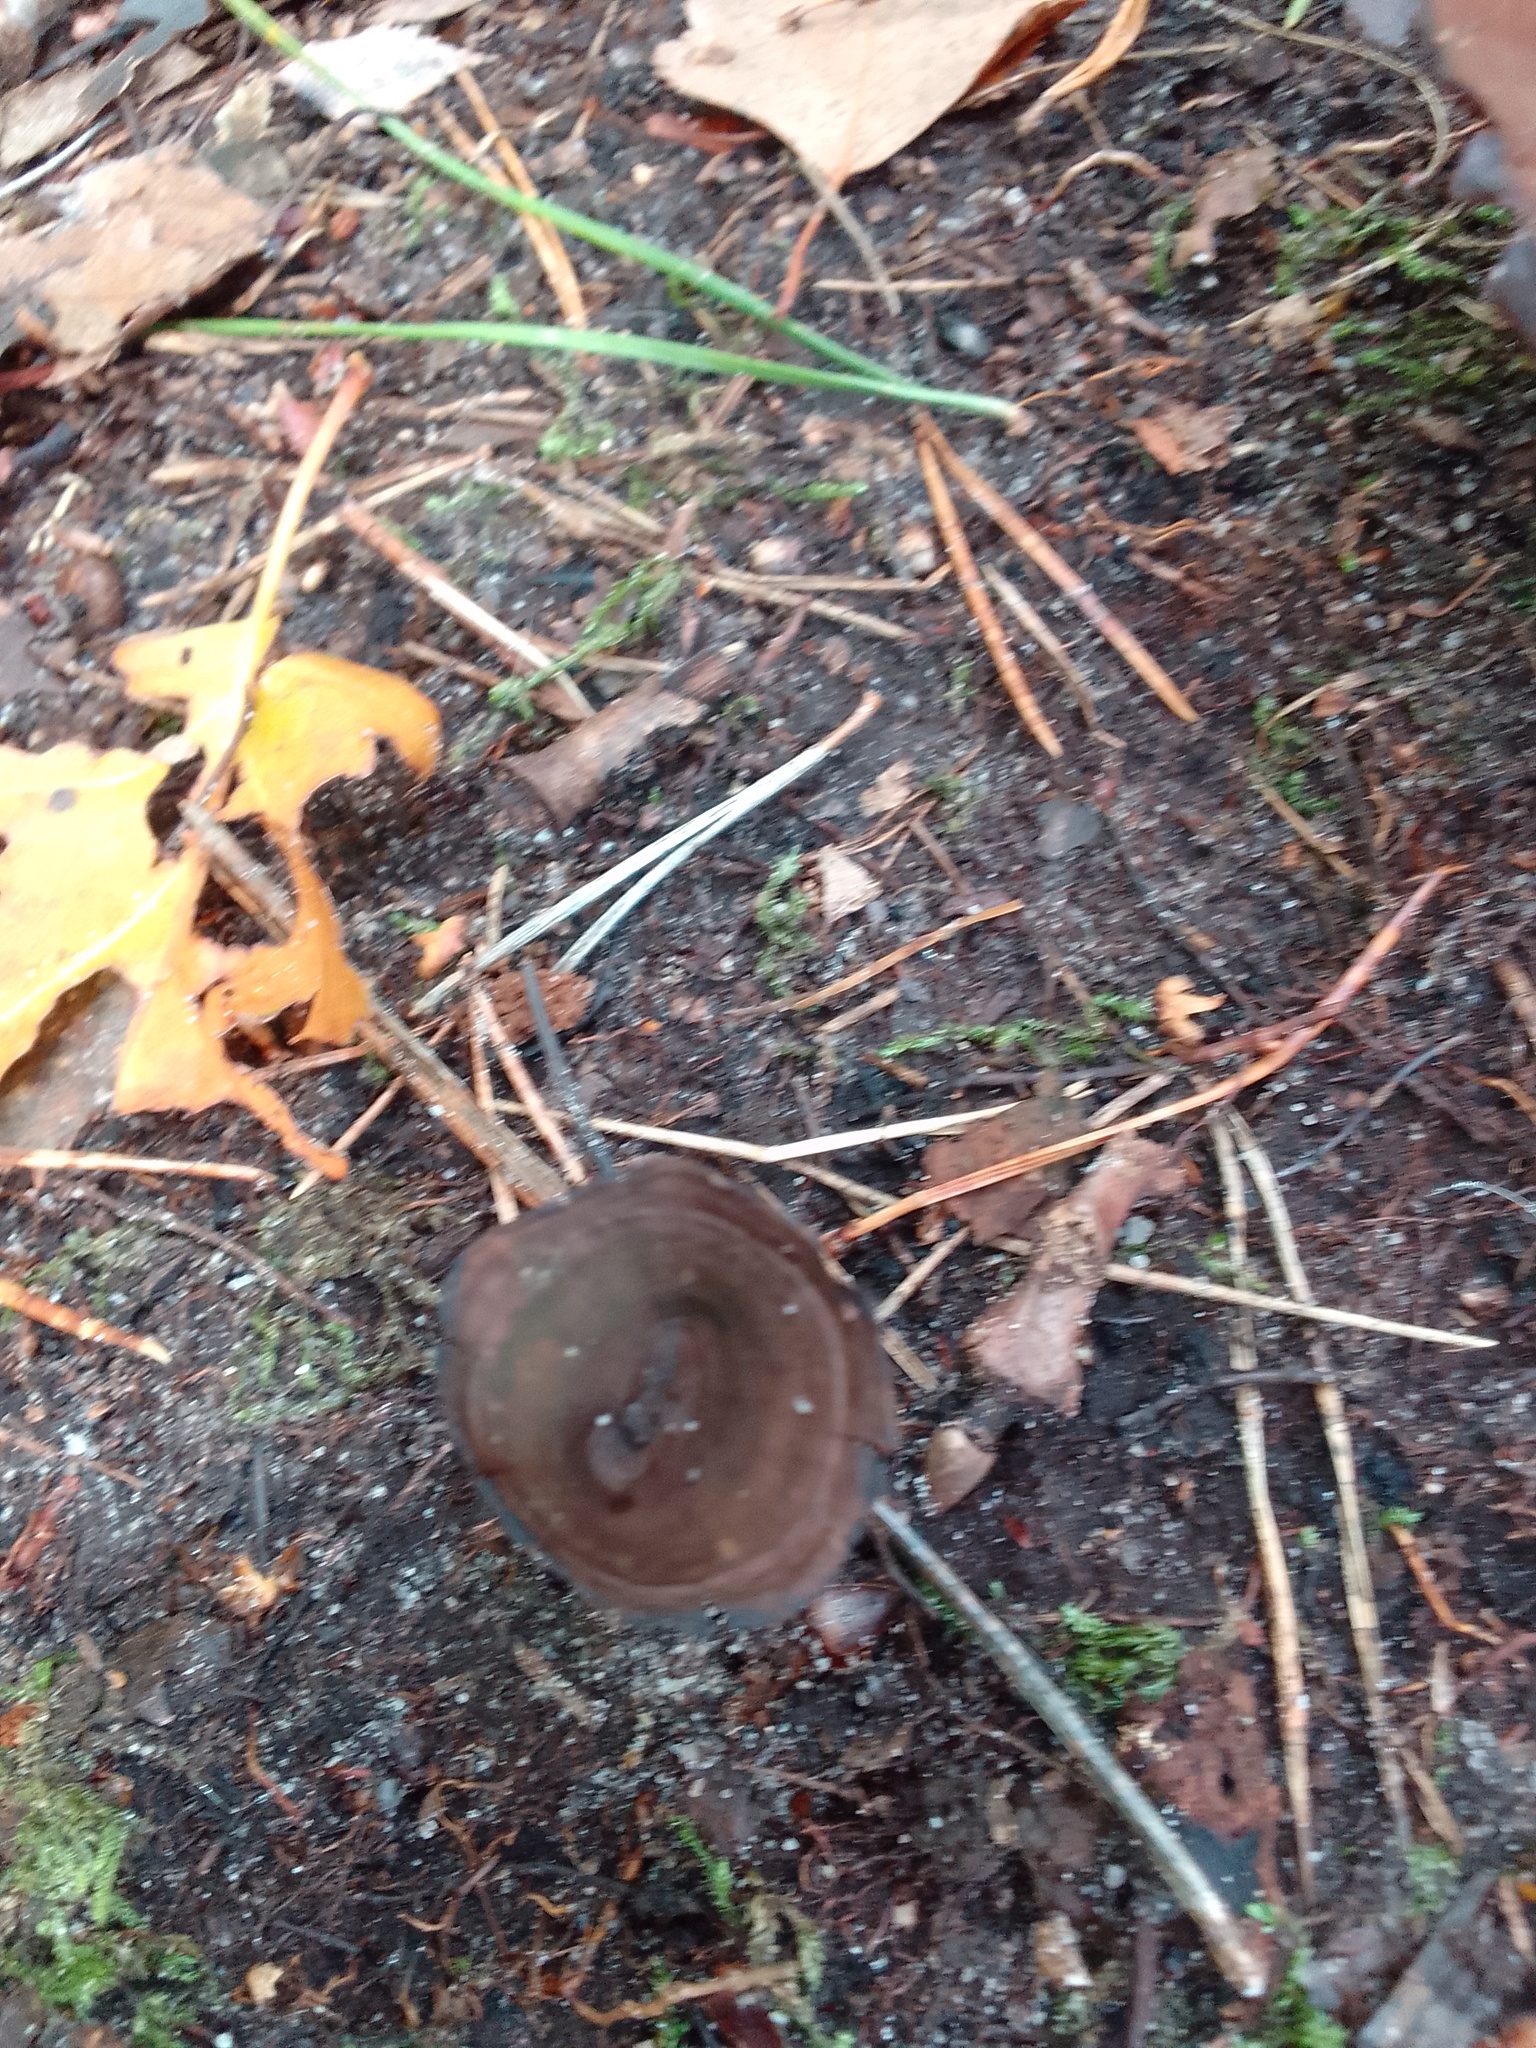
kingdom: Fungi
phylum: Basidiomycota
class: Agaricomycetes
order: Hymenochaetales
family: Hymenochaetaceae
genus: Coltricia
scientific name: Coltricia perennis
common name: Tiger's eye
